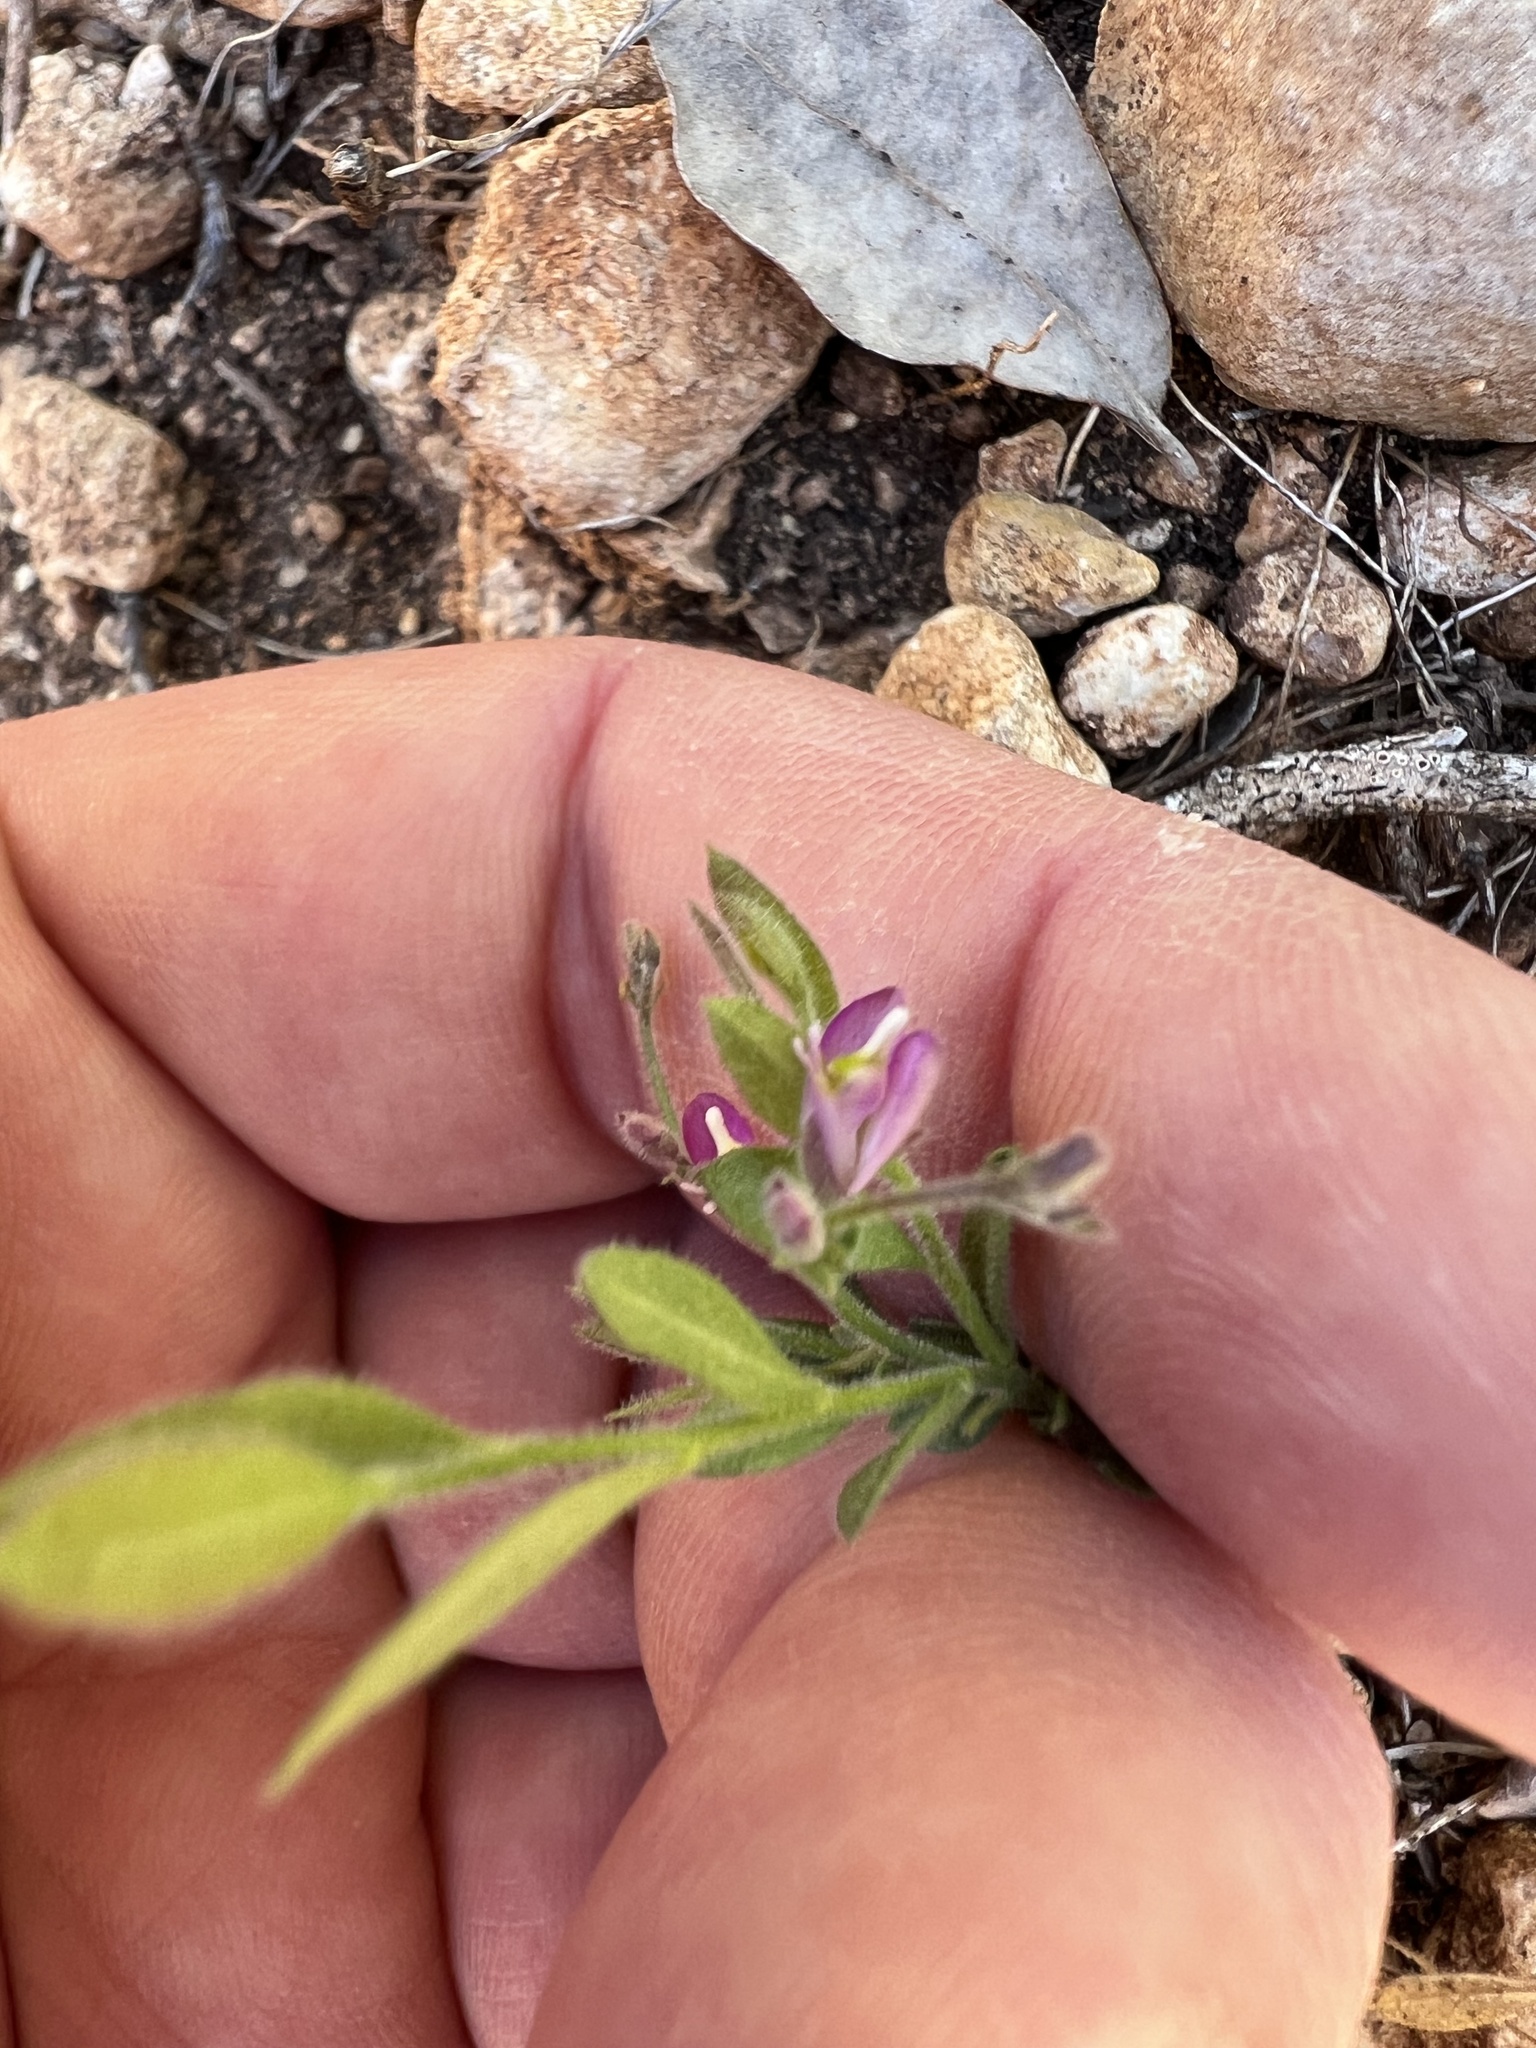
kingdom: Plantae
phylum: Tracheophyta
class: Magnoliopsida
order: Fabales
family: Polygalaceae
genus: Rhinotropis
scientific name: Rhinotropis lindheimeri
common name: Shrubby milkwort
